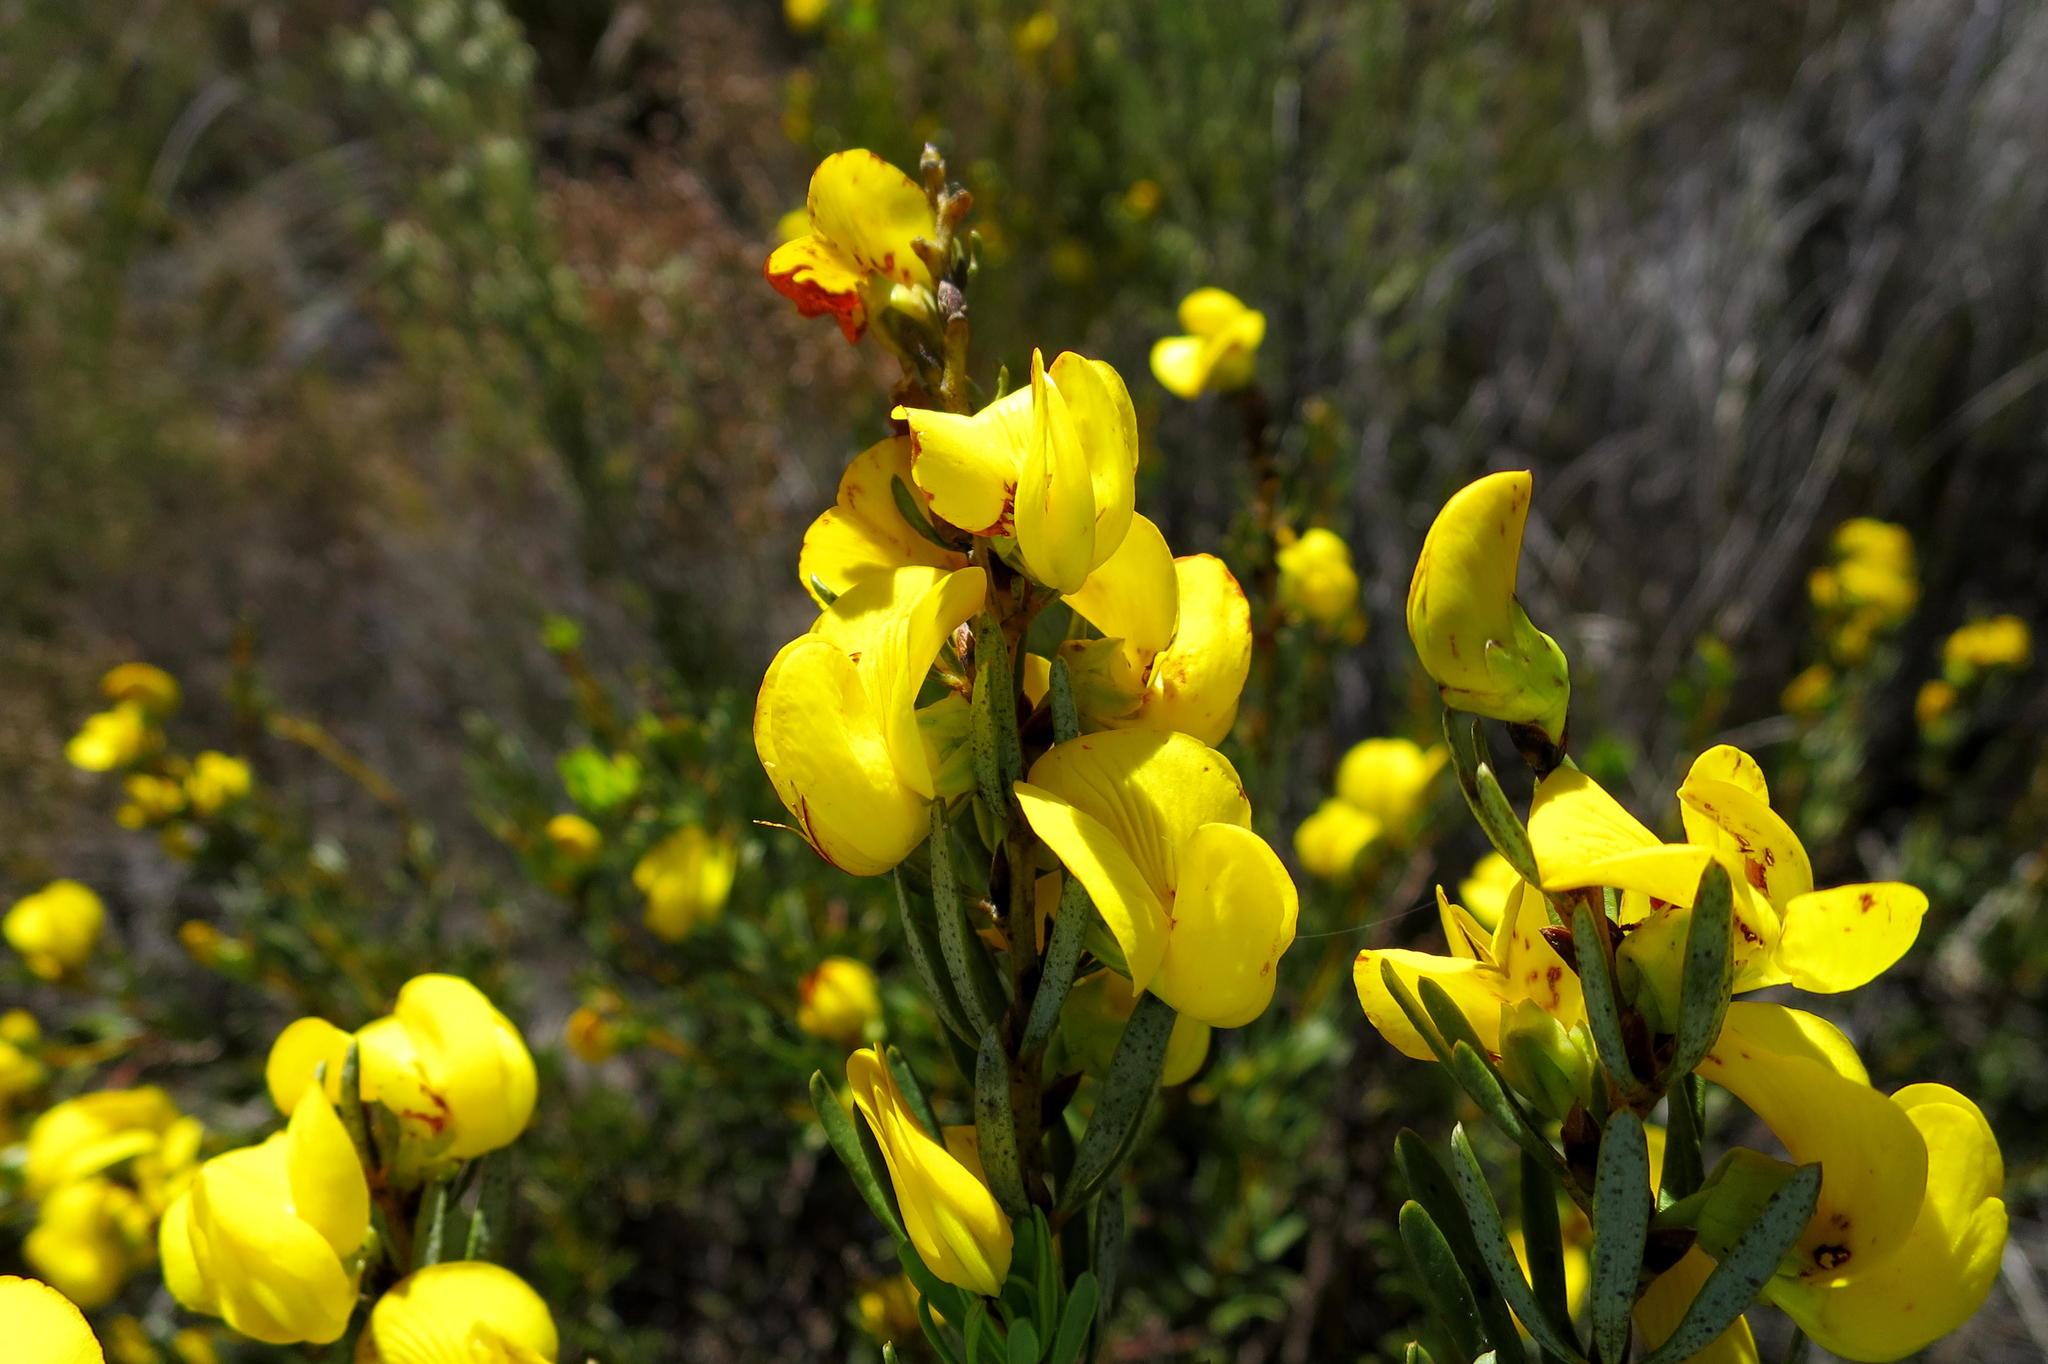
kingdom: Plantae
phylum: Tracheophyta
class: Magnoliopsida
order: Fabales
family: Fabaceae
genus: Cyclopia
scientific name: Cyclopia intermedia
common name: Mountain tea
